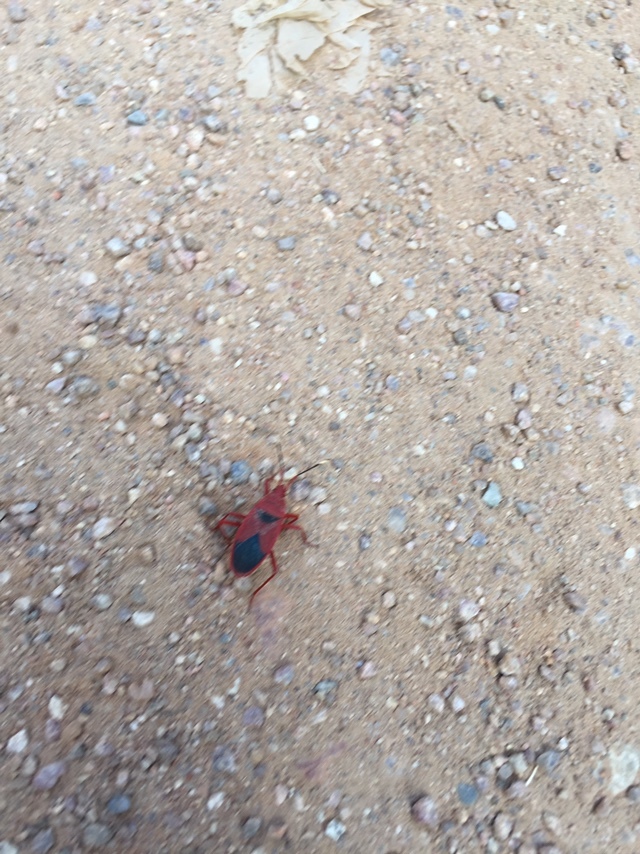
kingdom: Animalia
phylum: Arthropoda
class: Insecta
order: Hemiptera
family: Pyrrhocoridae
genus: Probergrothius
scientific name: Probergrothius
